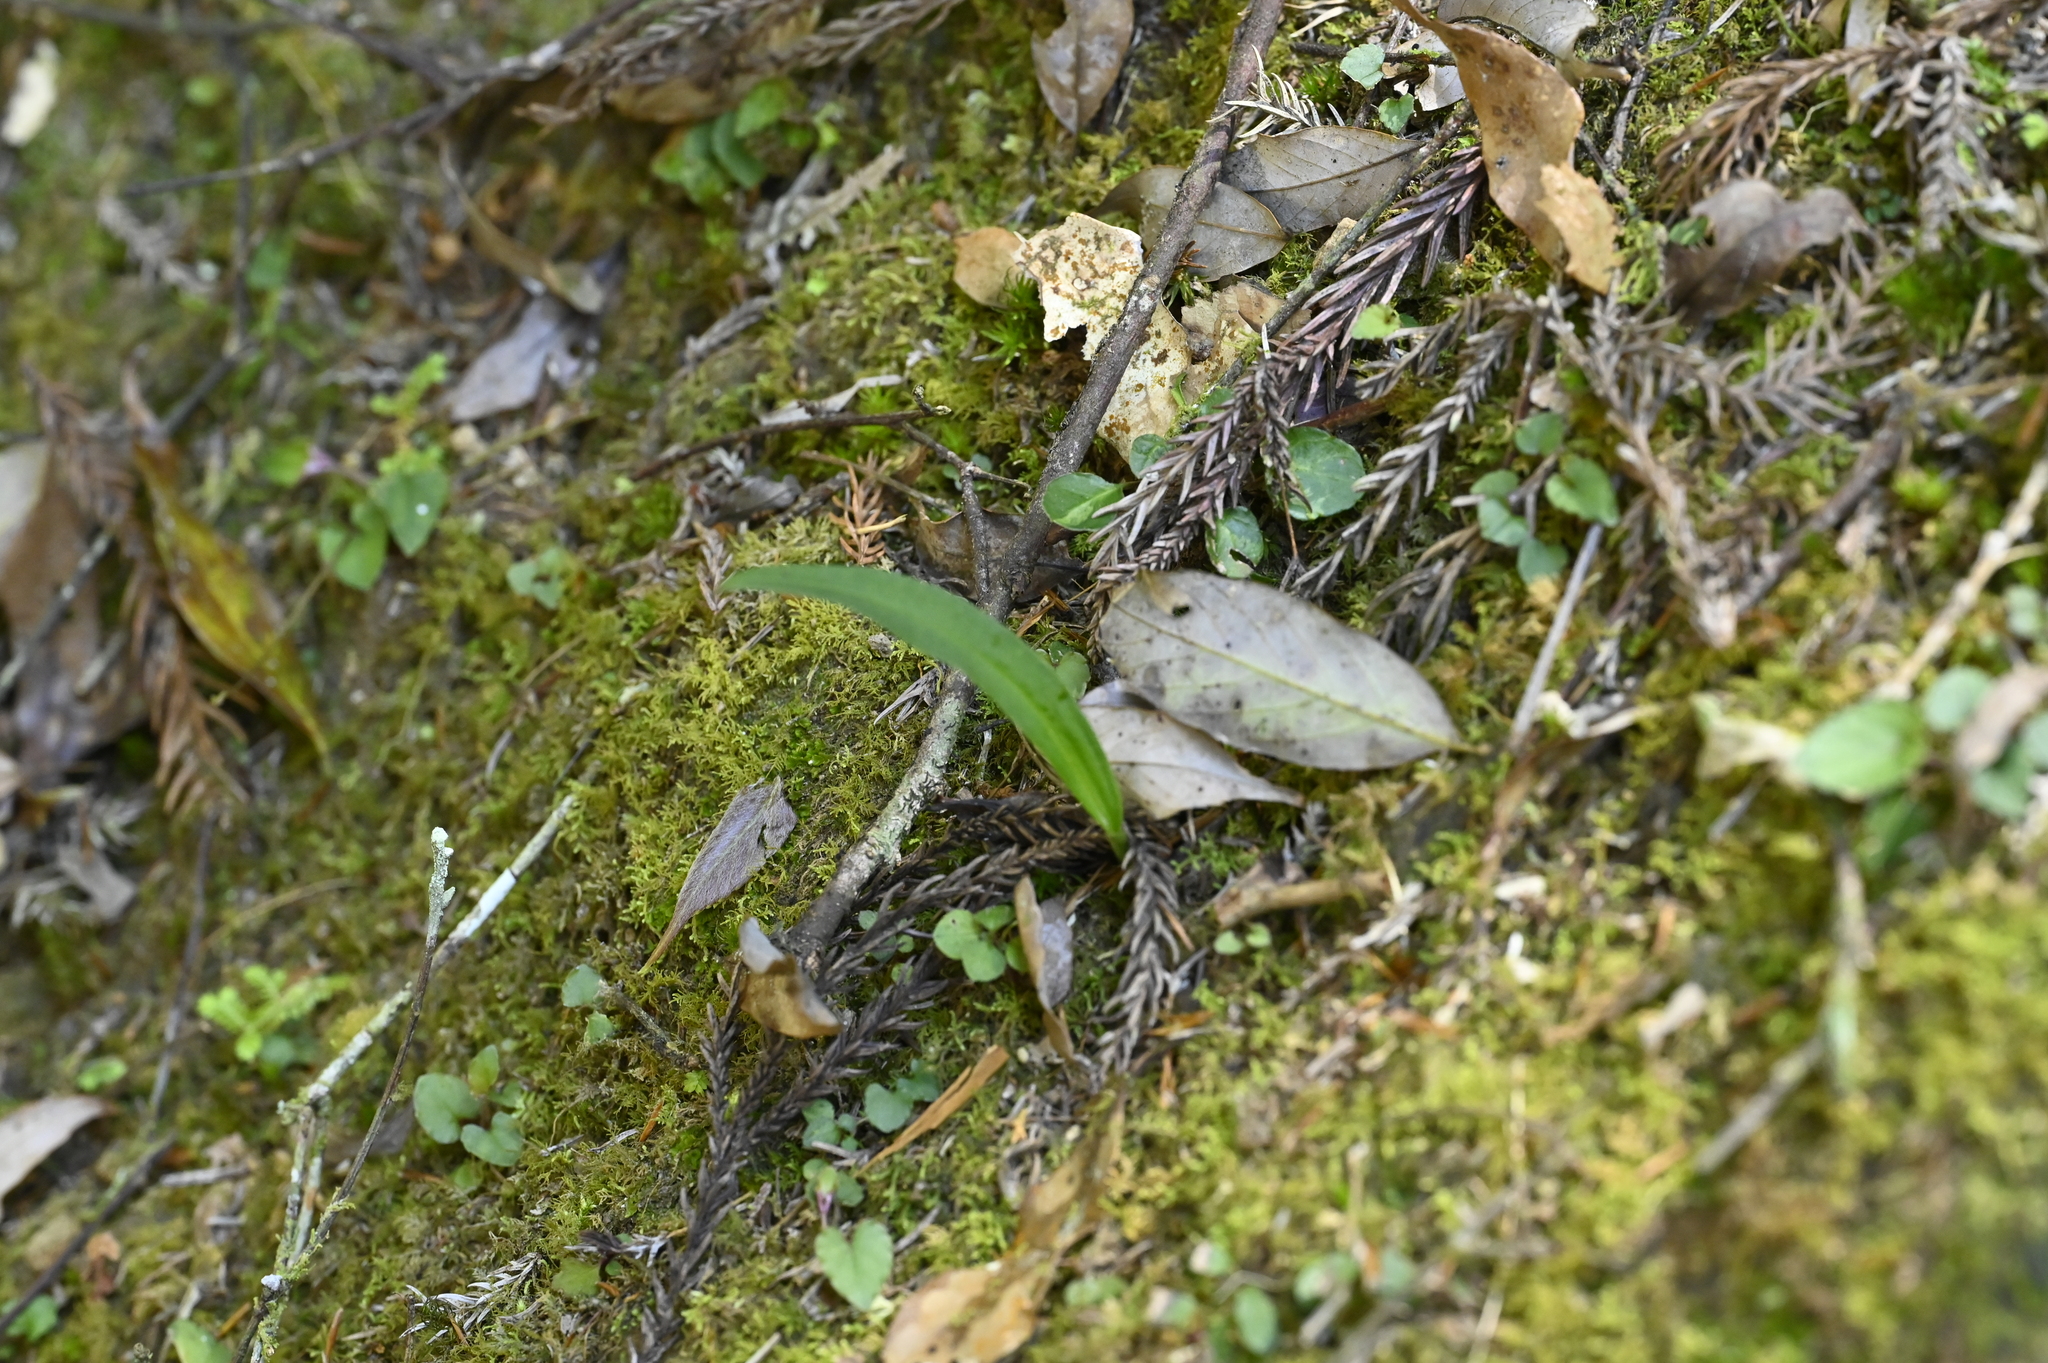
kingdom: Plantae
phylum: Tracheophyta
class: Liliopsida
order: Asparagales
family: Orchidaceae
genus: Herminium
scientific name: Herminium lanceum
